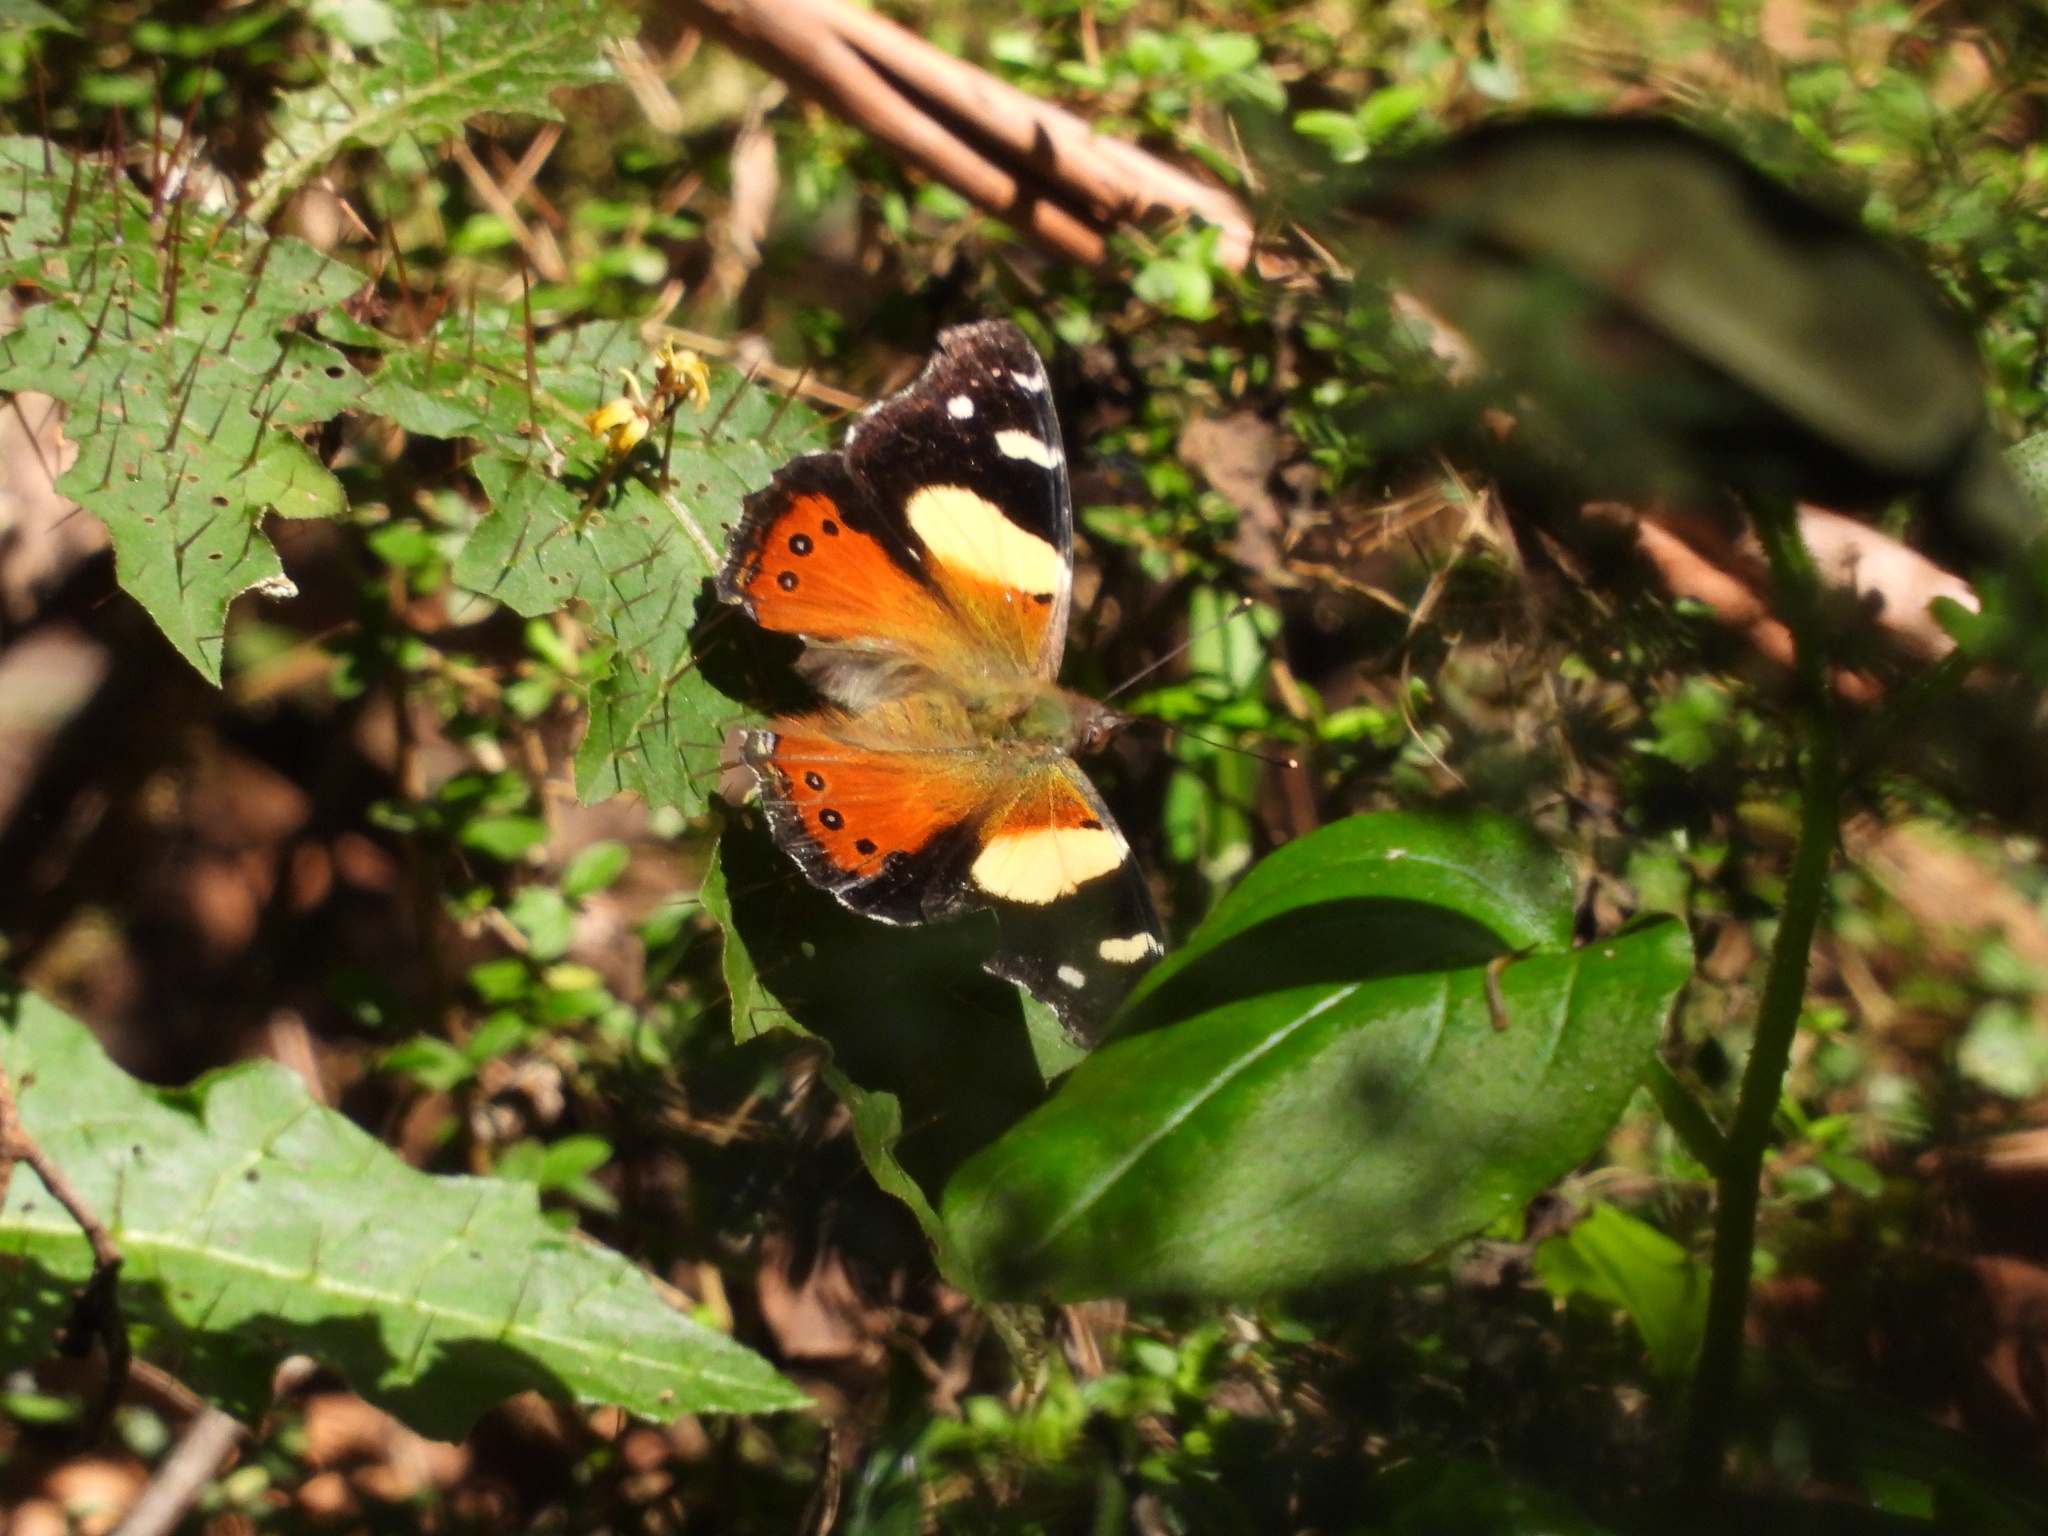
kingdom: Animalia
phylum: Arthropoda
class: Insecta
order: Lepidoptera
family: Nymphalidae
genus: Vanessa
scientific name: Vanessa itea
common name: Yellow admiral
